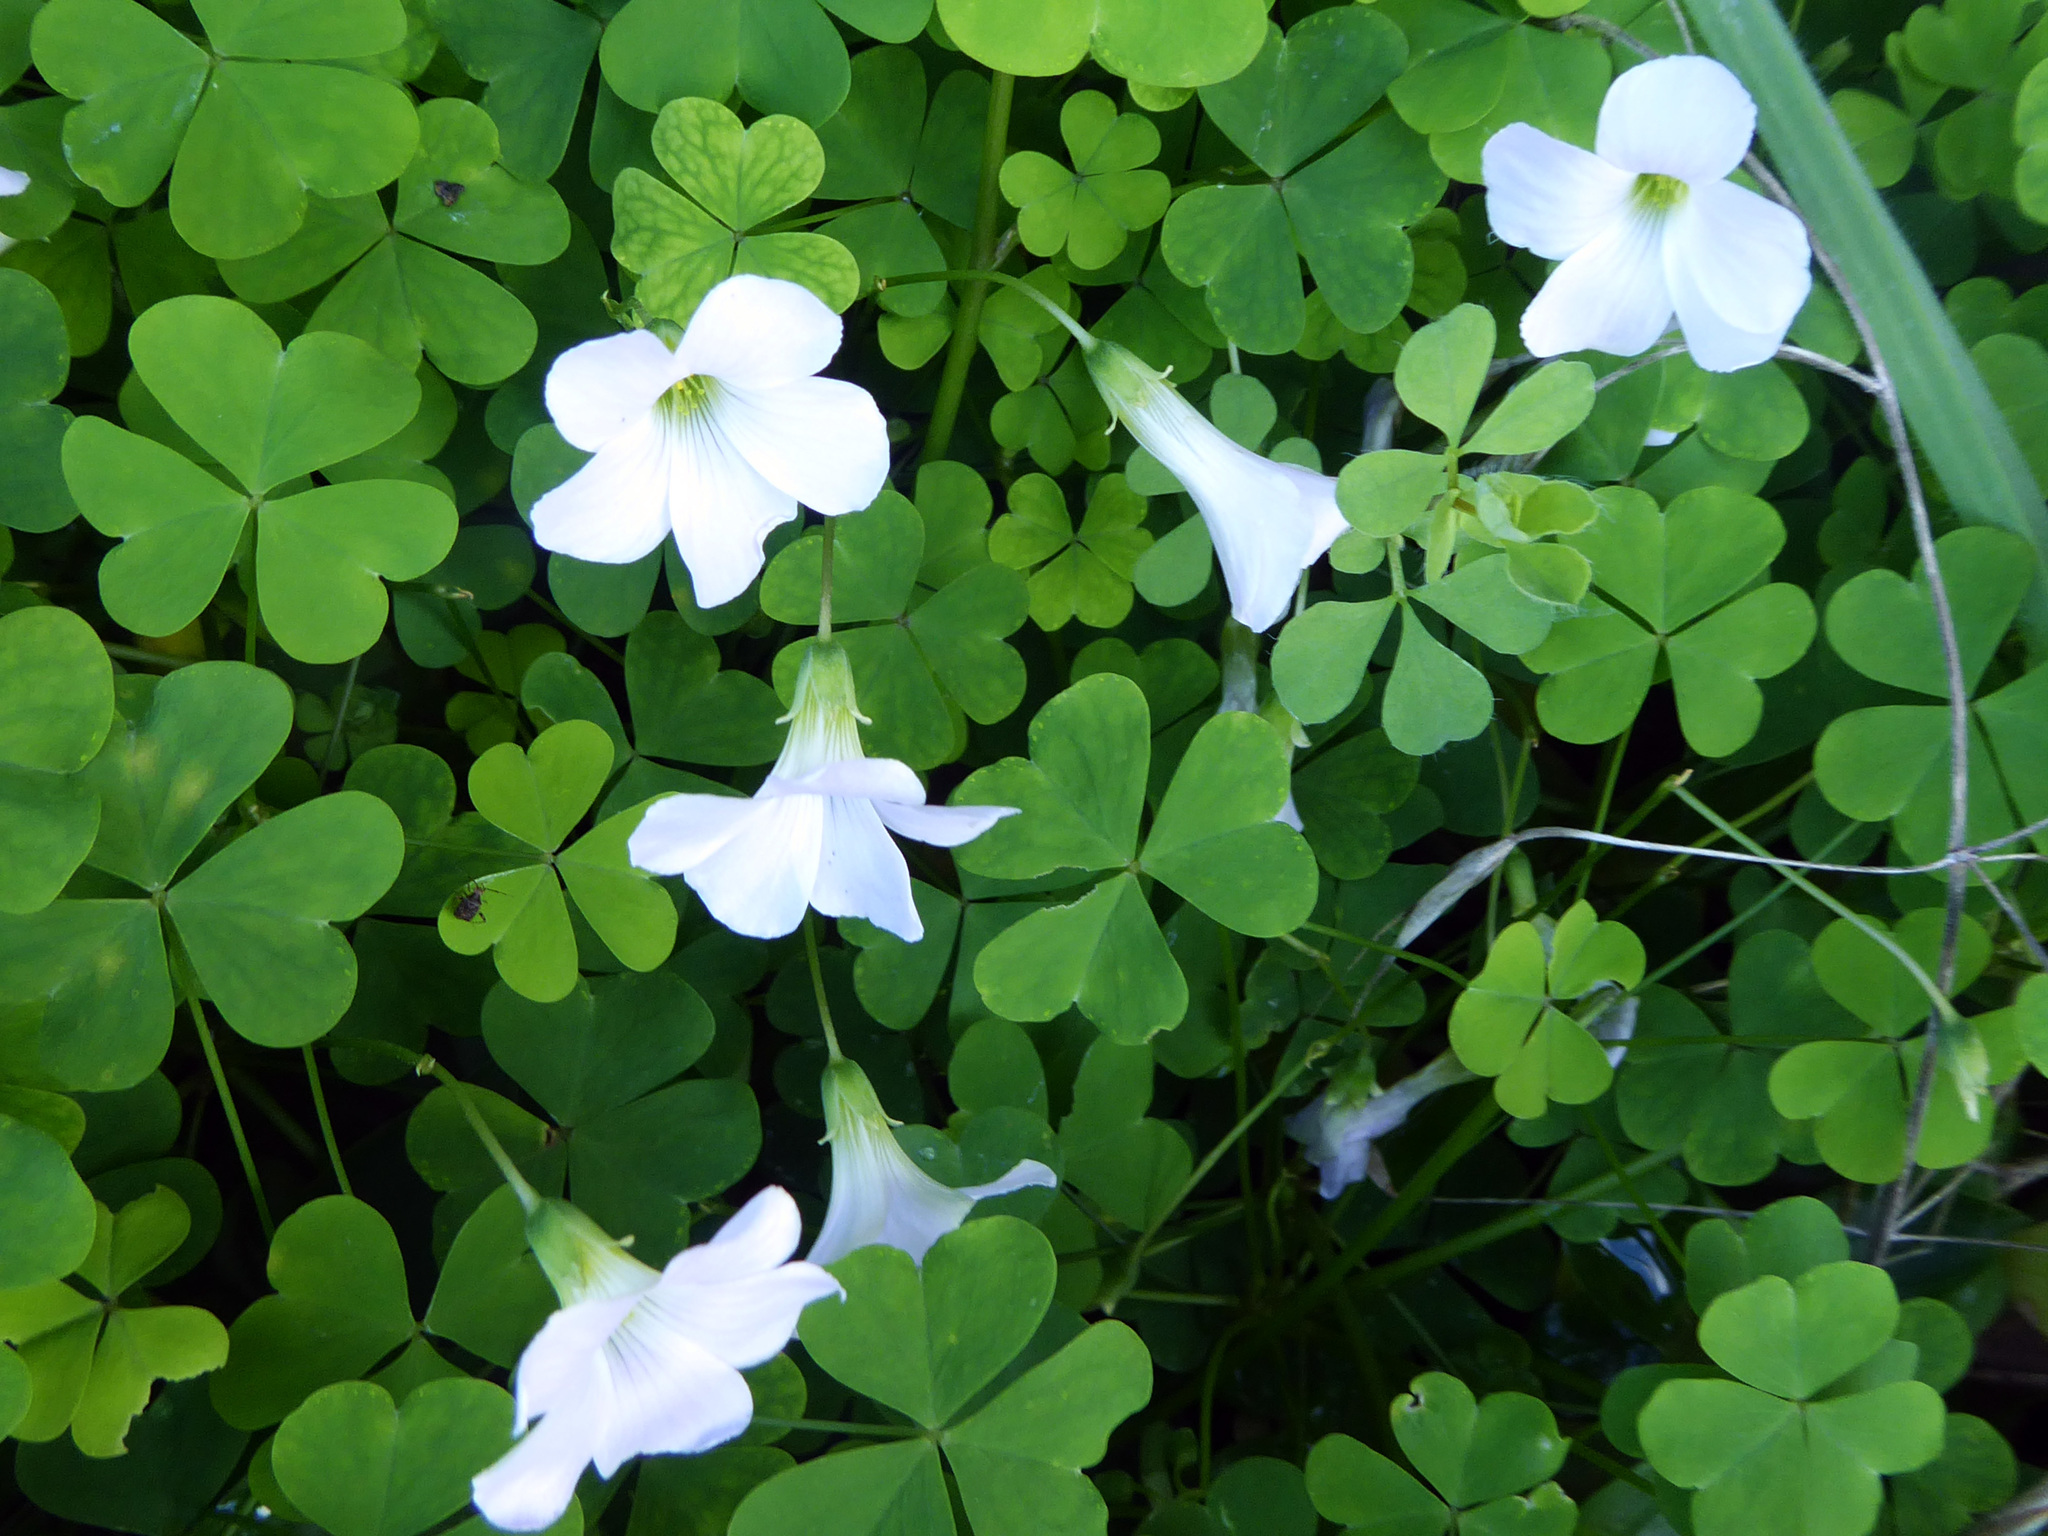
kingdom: Plantae
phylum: Tracheophyta
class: Magnoliopsida
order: Oxalidales
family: Oxalidaceae
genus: Oxalis
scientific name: Oxalis incarnata
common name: Pale pink-sorrel
